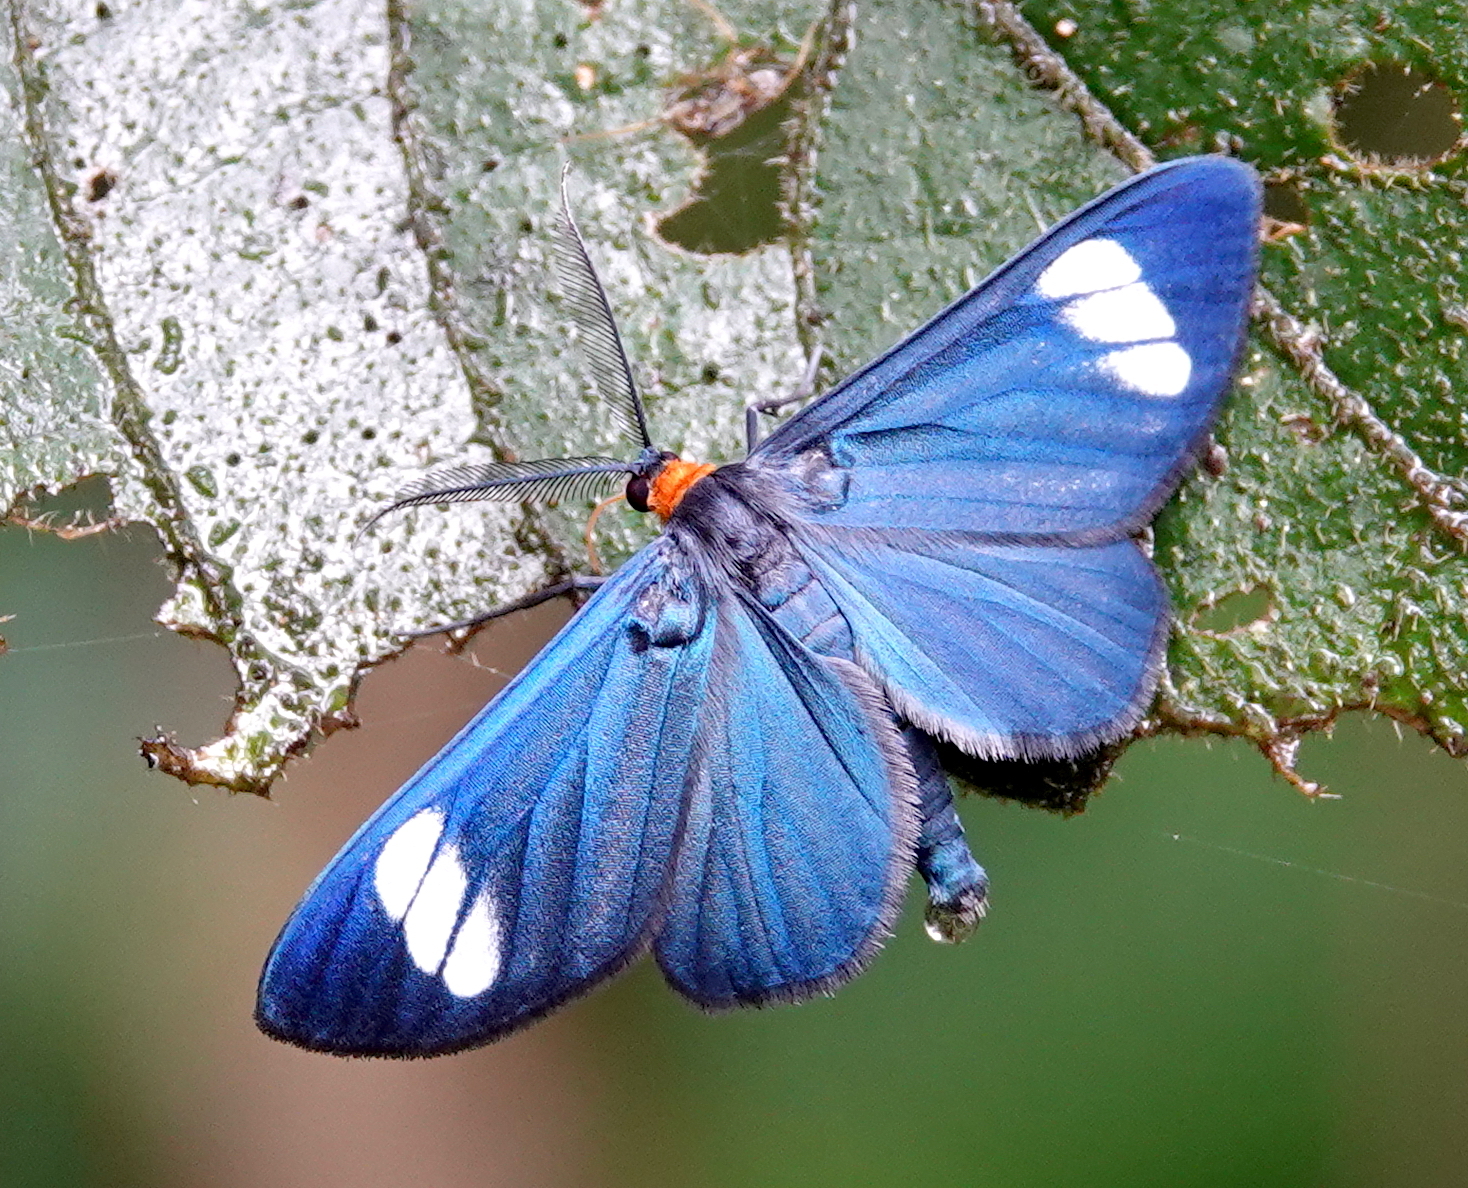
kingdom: Animalia
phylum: Arthropoda
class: Insecta
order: Lepidoptera
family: Geometridae
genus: Neopaniasis
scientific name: Neopaniasis aleopetra
